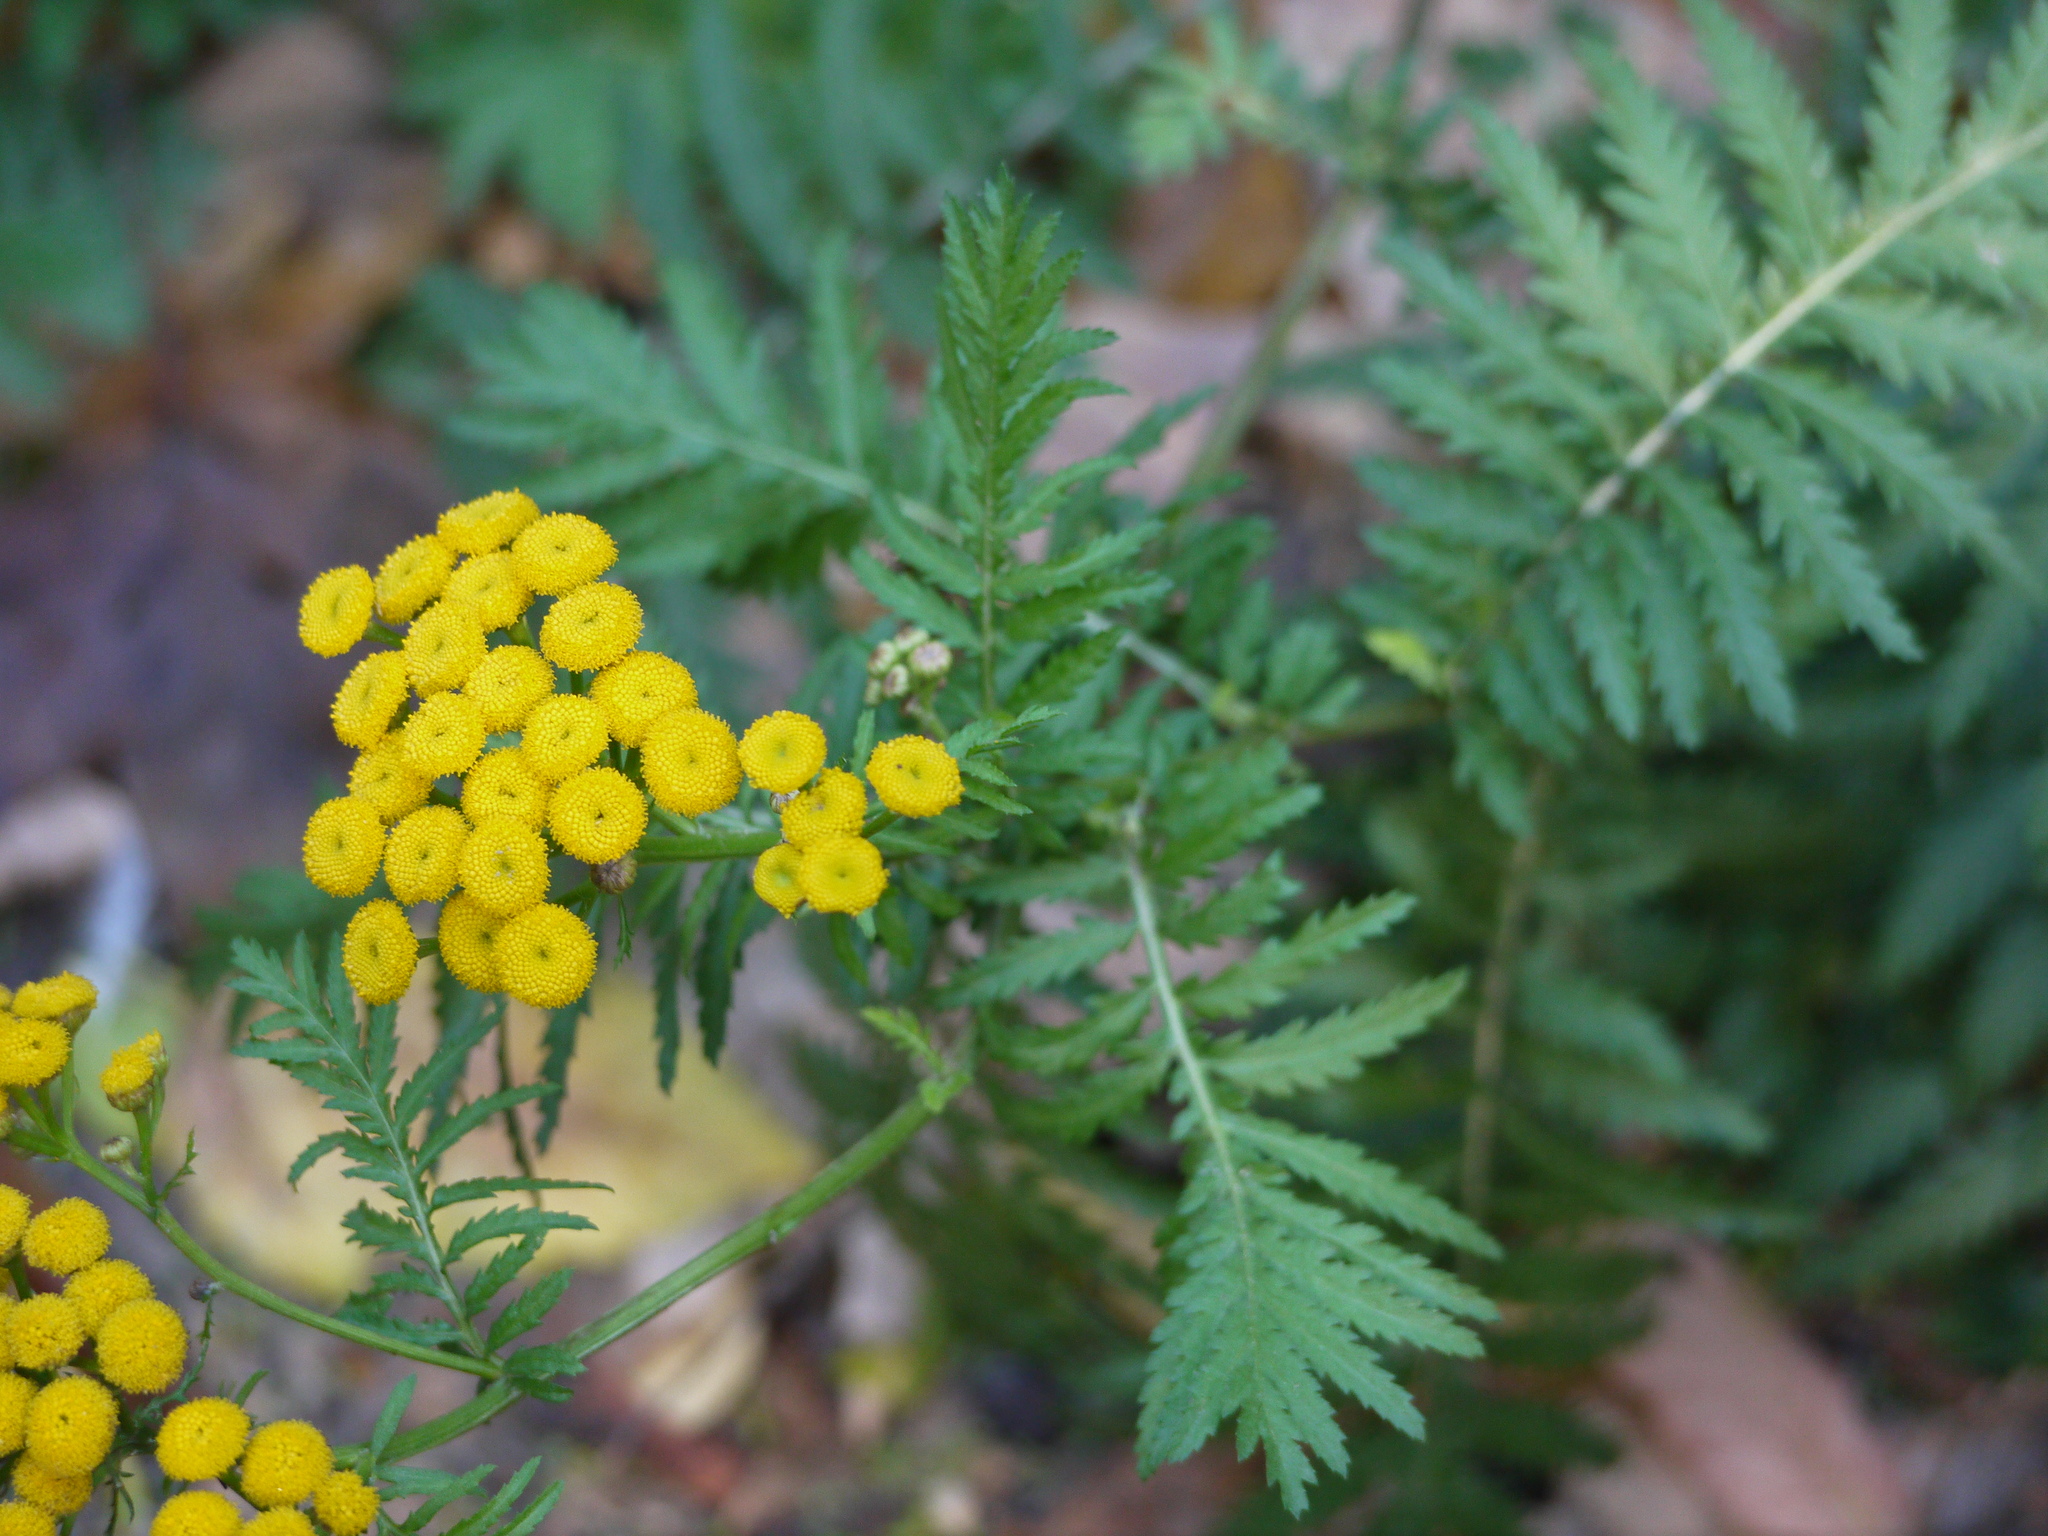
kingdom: Plantae
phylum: Tracheophyta
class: Magnoliopsida
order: Asterales
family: Asteraceae
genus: Tanacetum
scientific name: Tanacetum vulgare
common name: Common tansy
